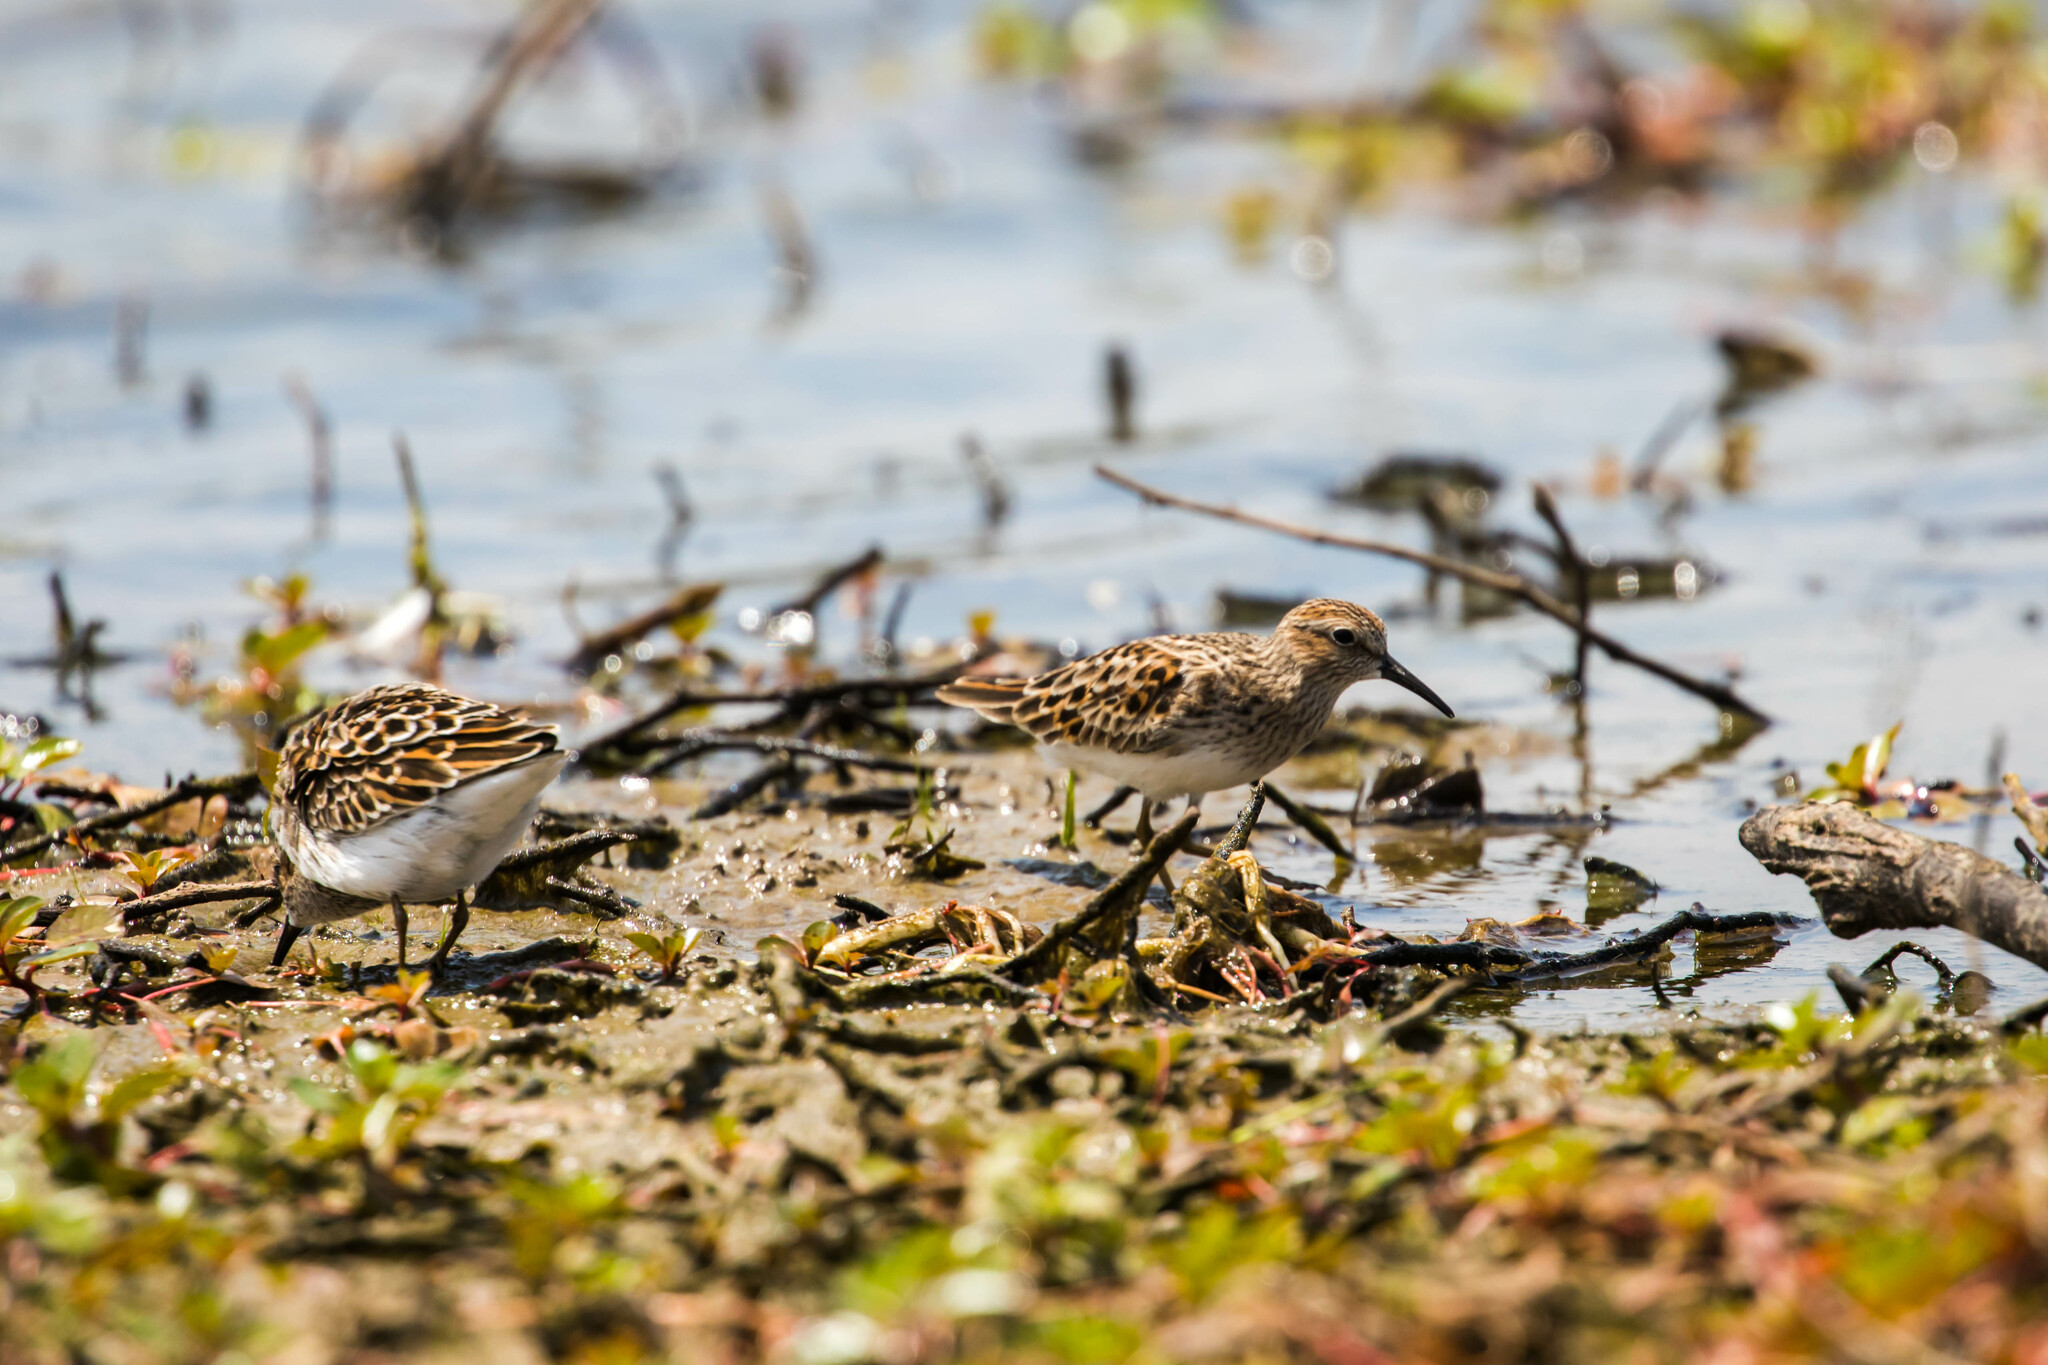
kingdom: Animalia
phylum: Chordata
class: Aves
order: Charadriiformes
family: Scolopacidae
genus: Calidris
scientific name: Calidris minutilla
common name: Least sandpiper
